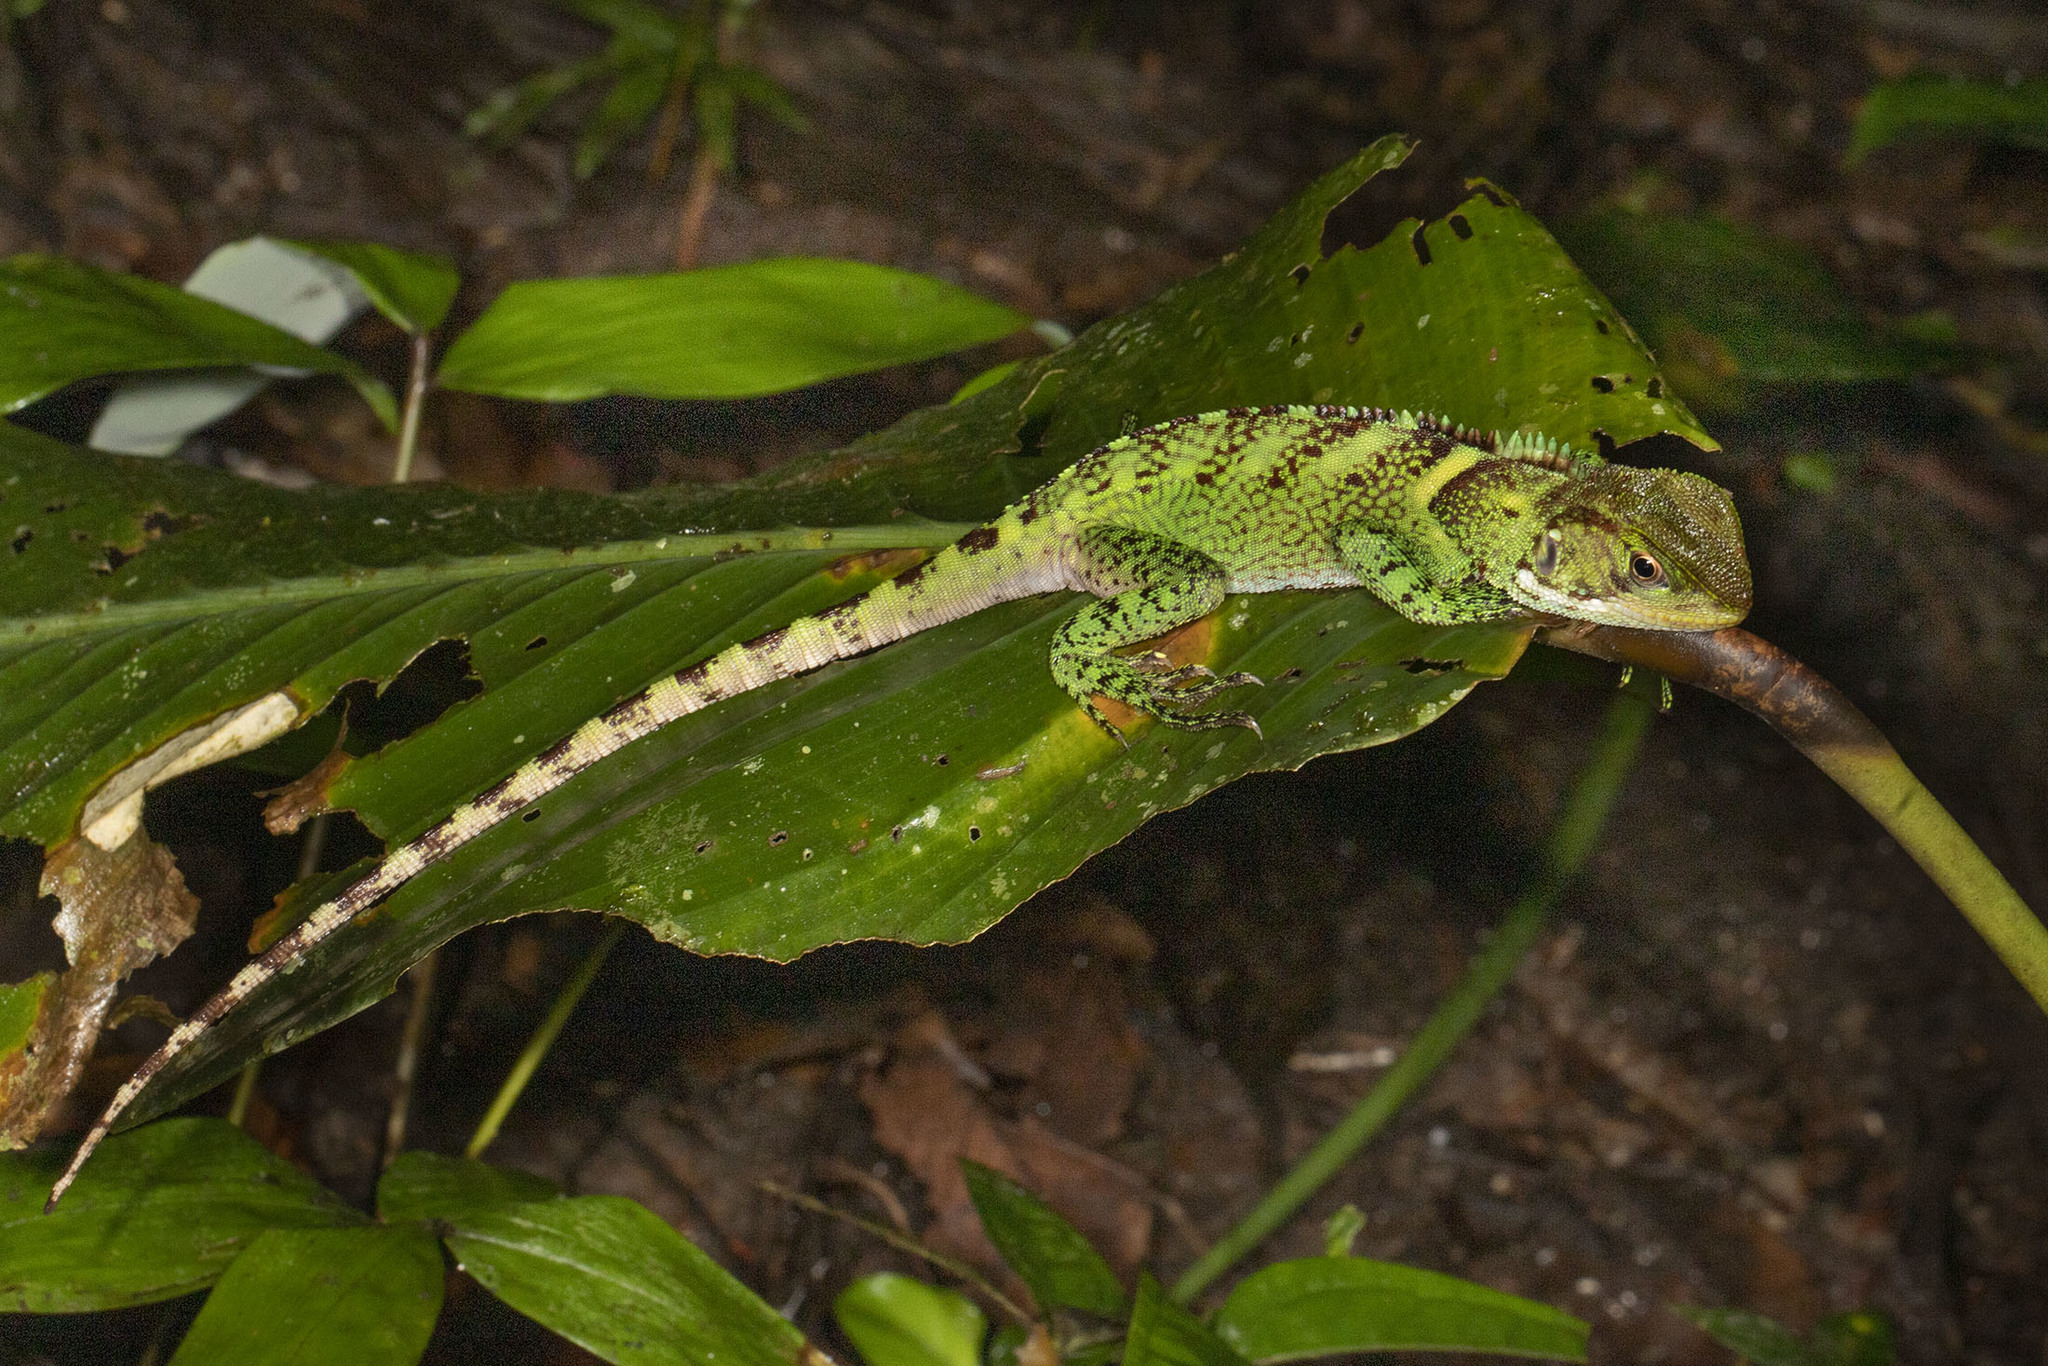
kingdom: Animalia
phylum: Chordata
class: Squamata
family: Hoplocercidae
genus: Enyalioides
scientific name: Enyalioides laticeps
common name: Guichenot's dwarf iguana
